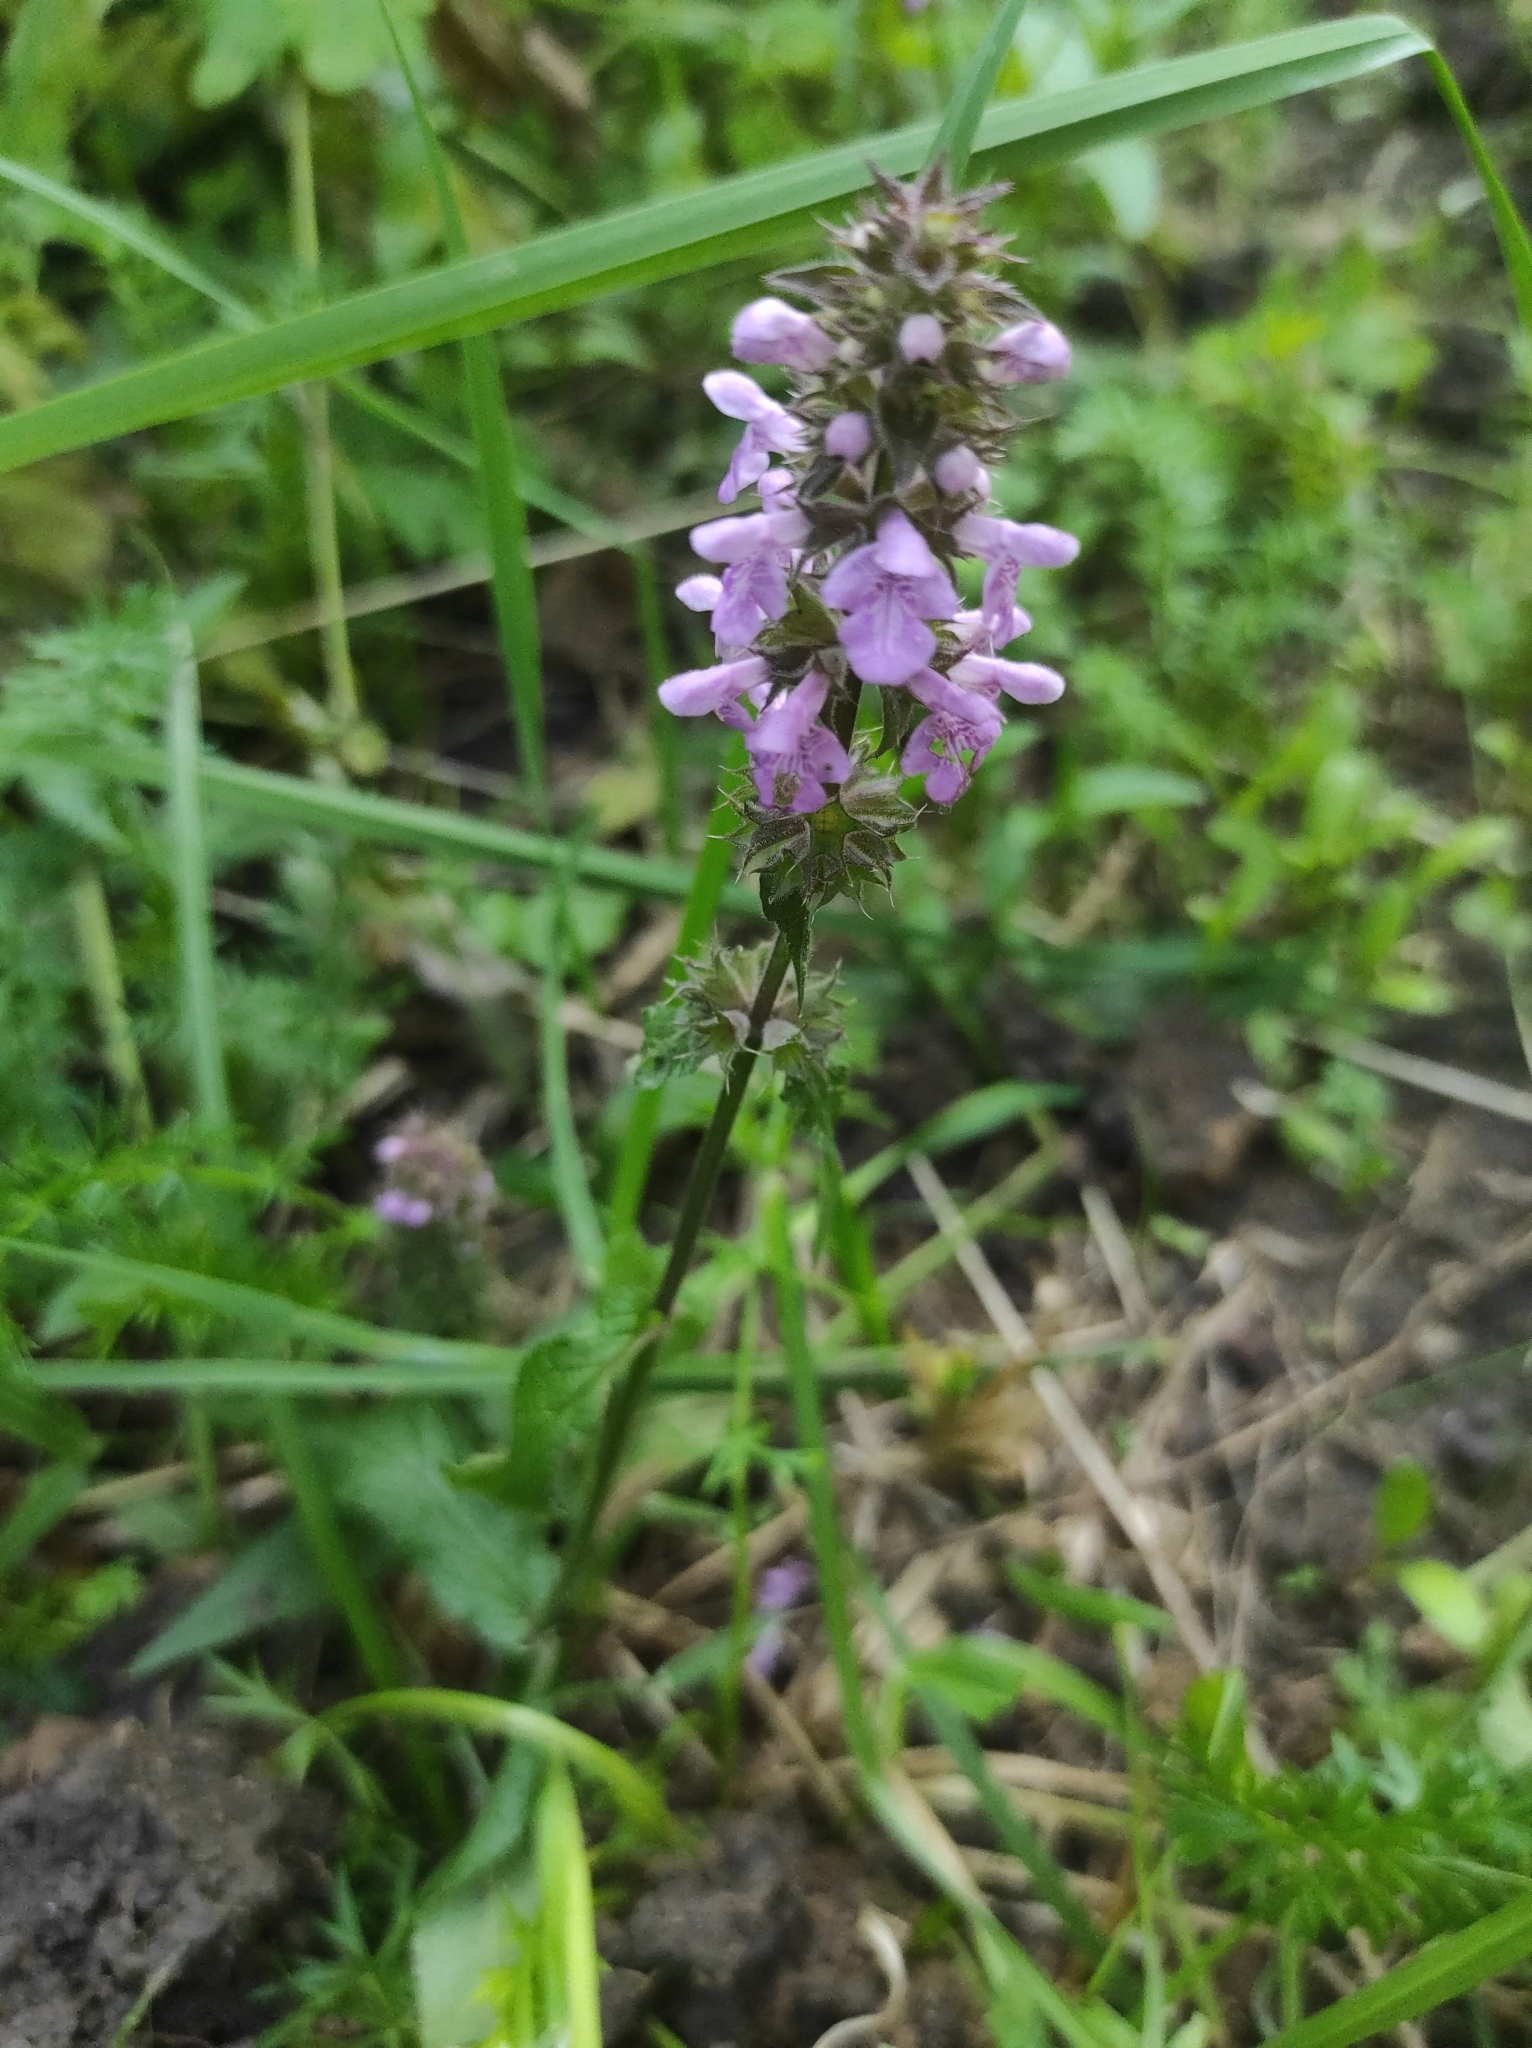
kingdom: Plantae
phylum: Tracheophyta
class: Magnoliopsida
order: Lamiales
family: Lamiaceae
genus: Stachys
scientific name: Stachys palustris
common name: Marsh woundwort
